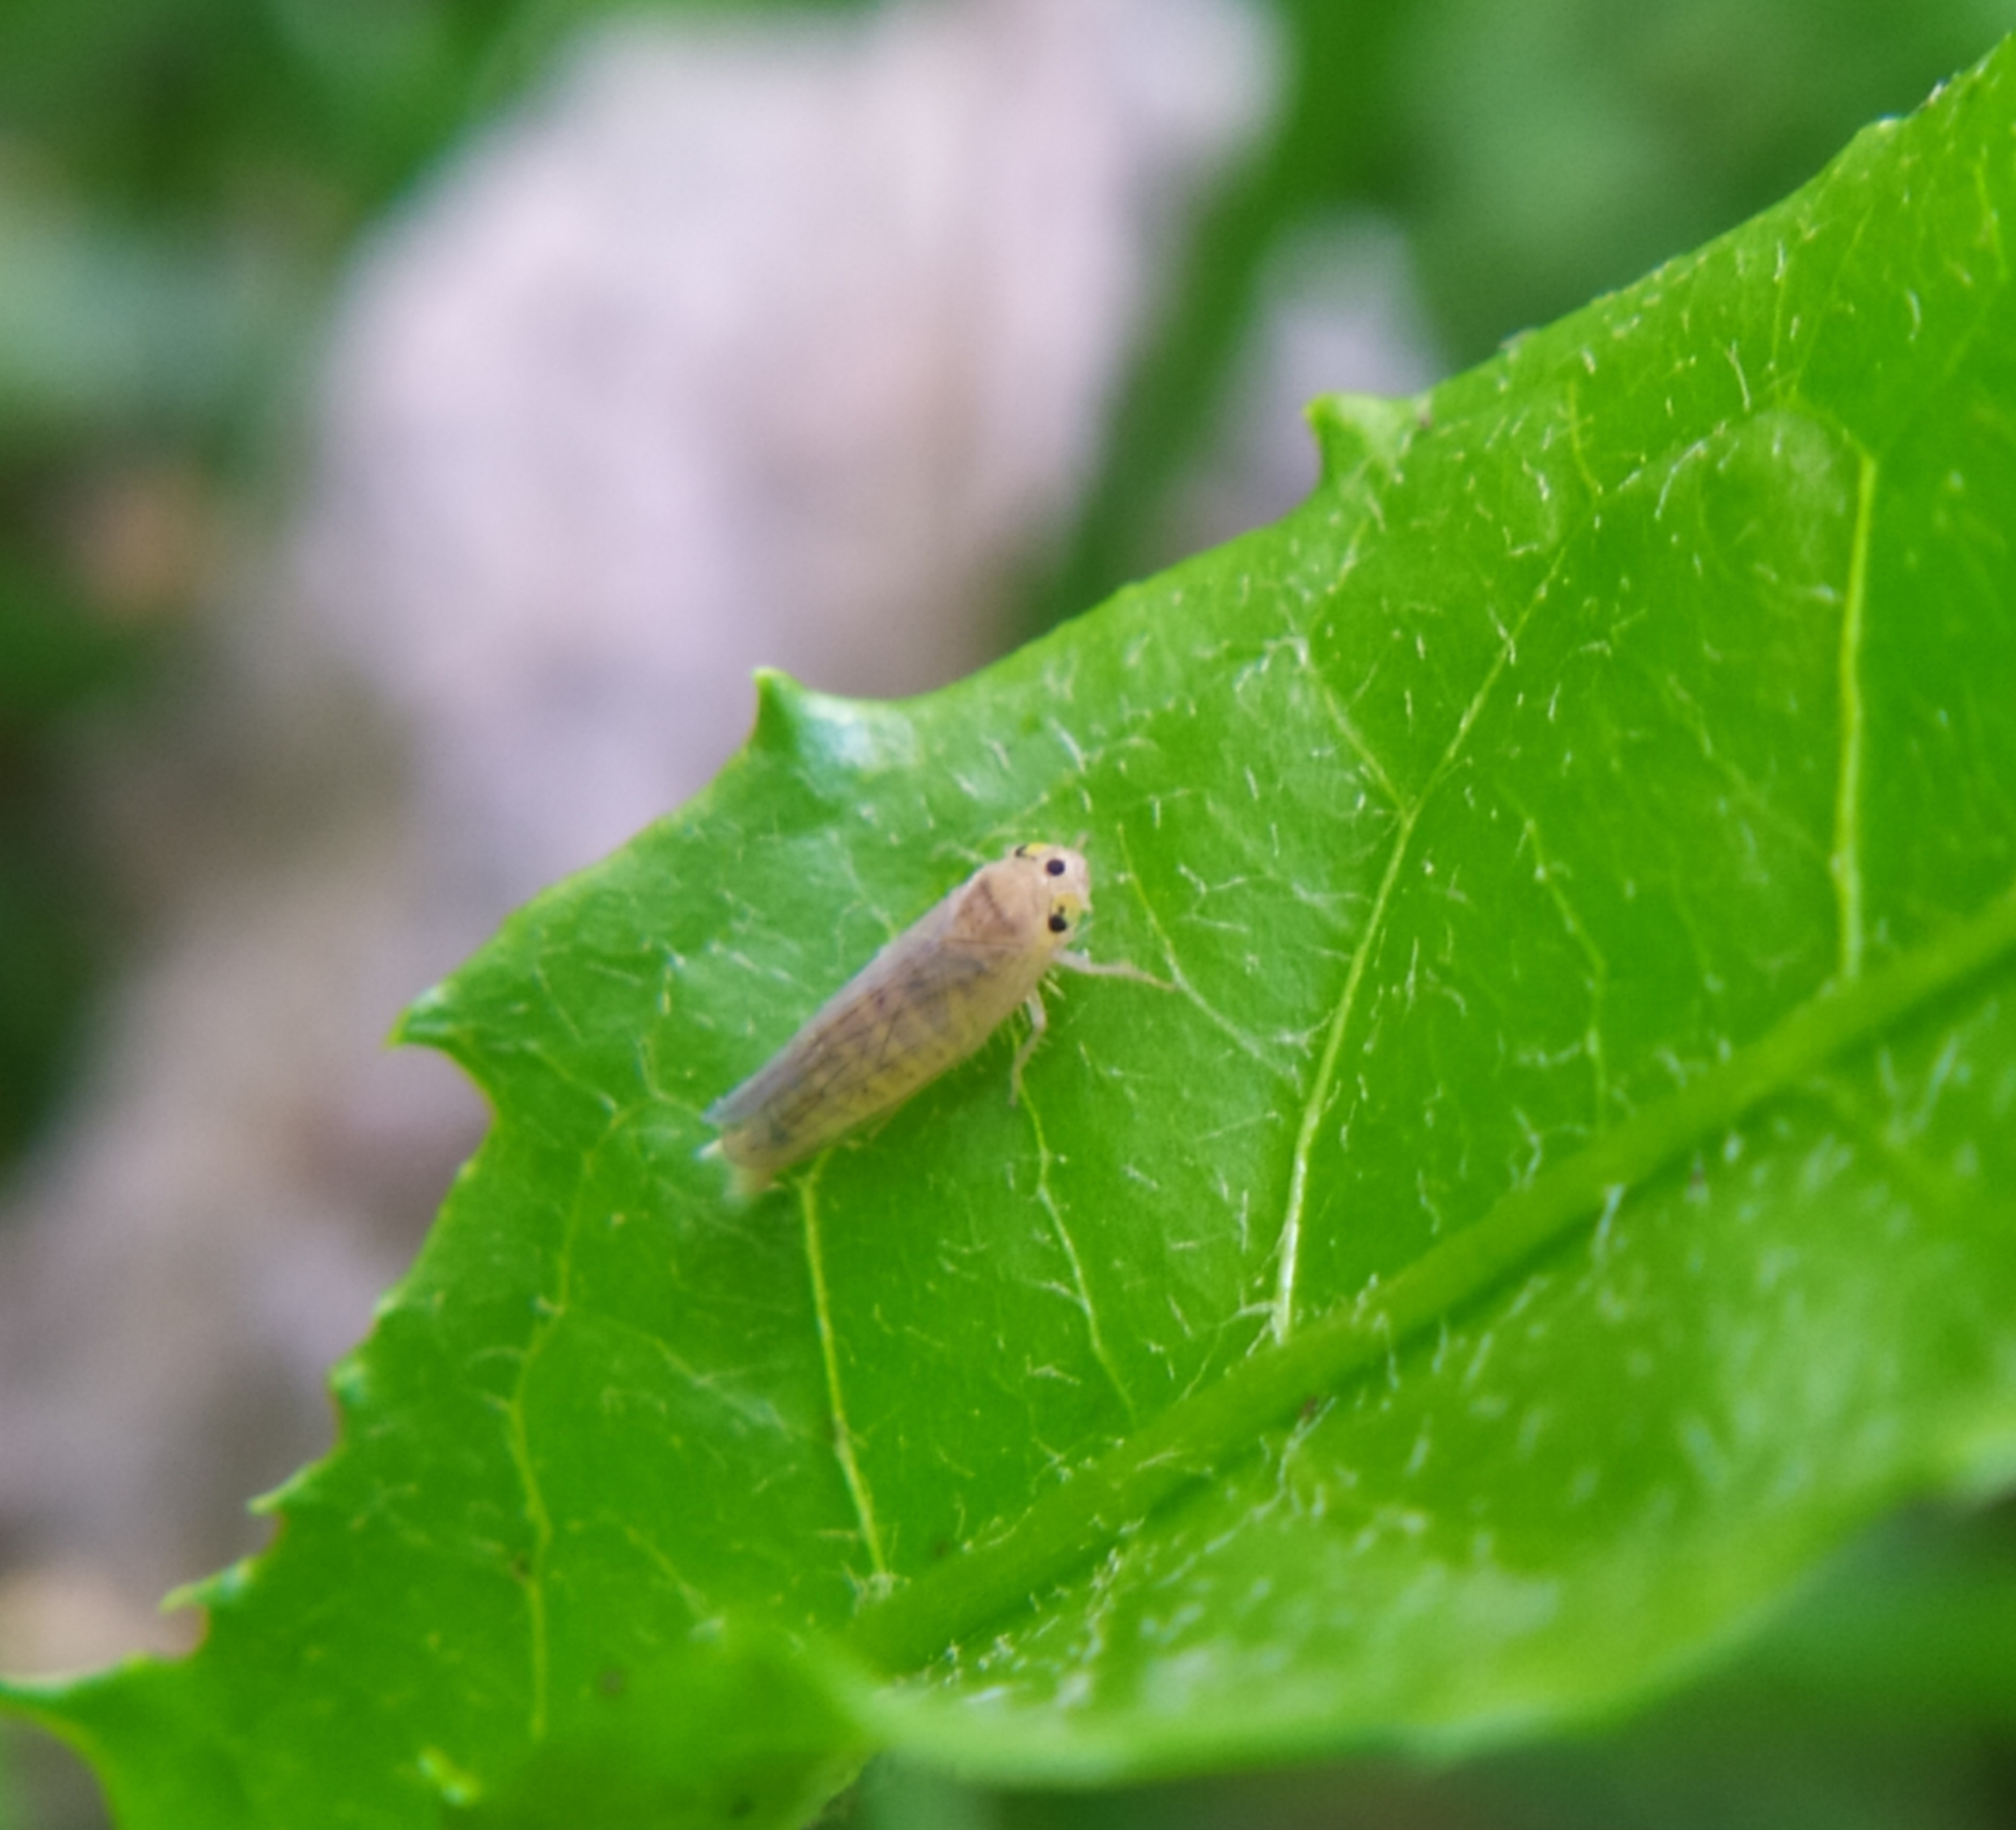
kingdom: Animalia
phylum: Arthropoda
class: Insecta
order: Hemiptera
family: Cicadellidae
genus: Phlogotettix
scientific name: Phlogotettix cyclops
